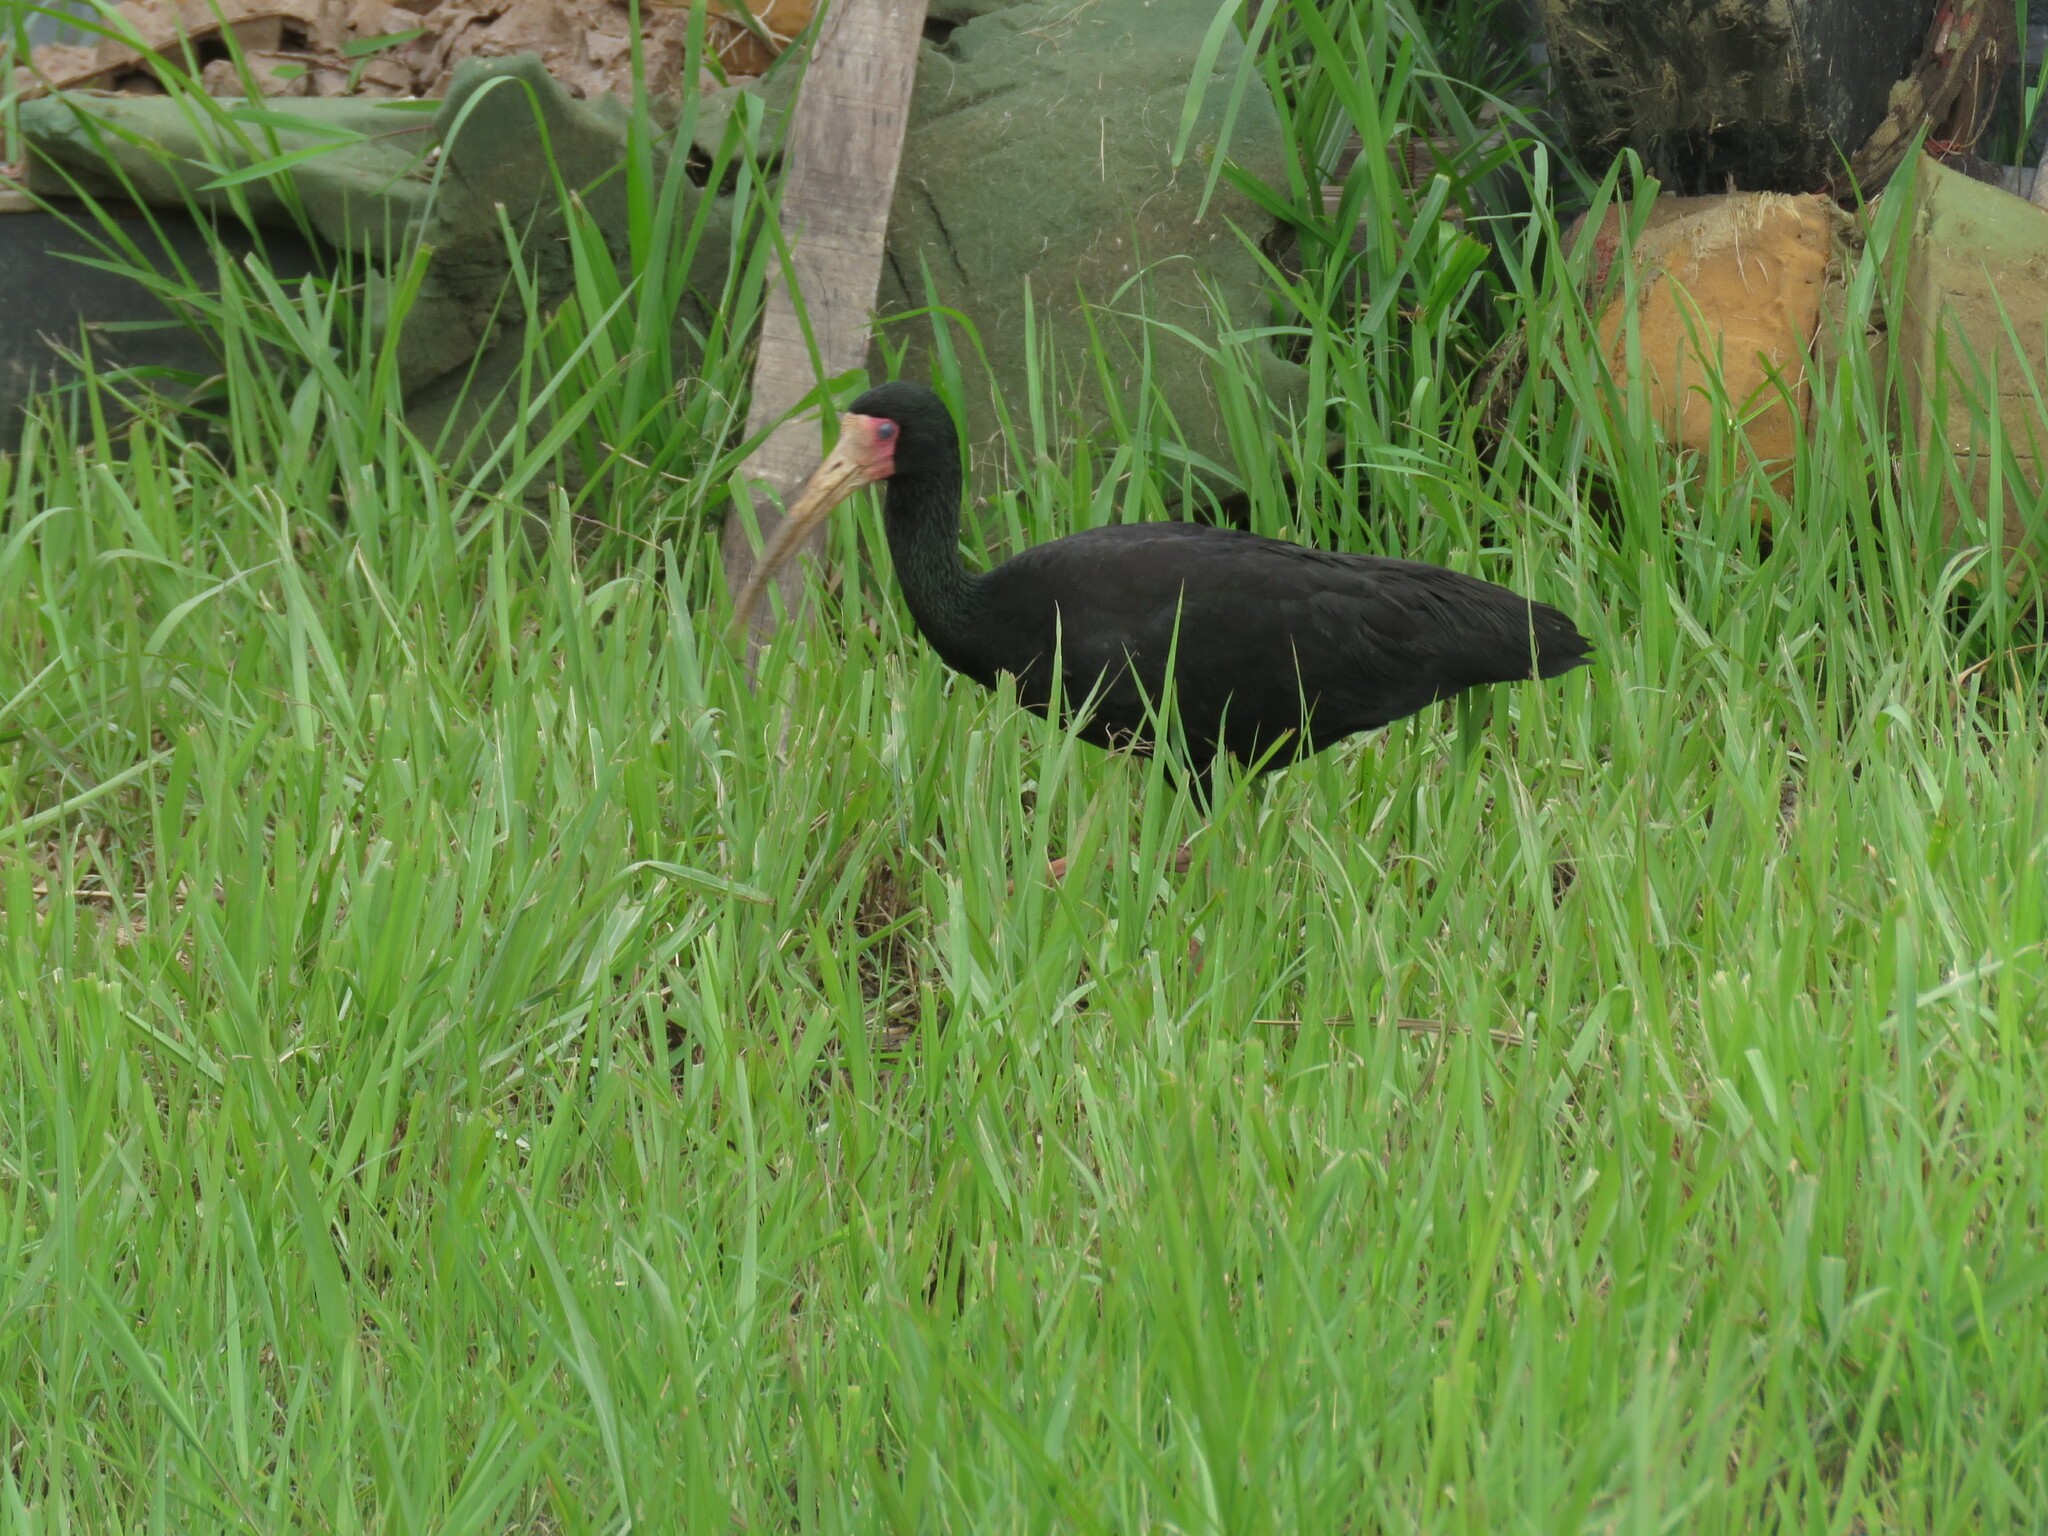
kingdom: Animalia
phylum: Chordata
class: Aves
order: Pelecaniformes
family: Threskiornithidae
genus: Phimosus
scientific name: Phimosus infuscatus
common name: Bare-faced ibis
